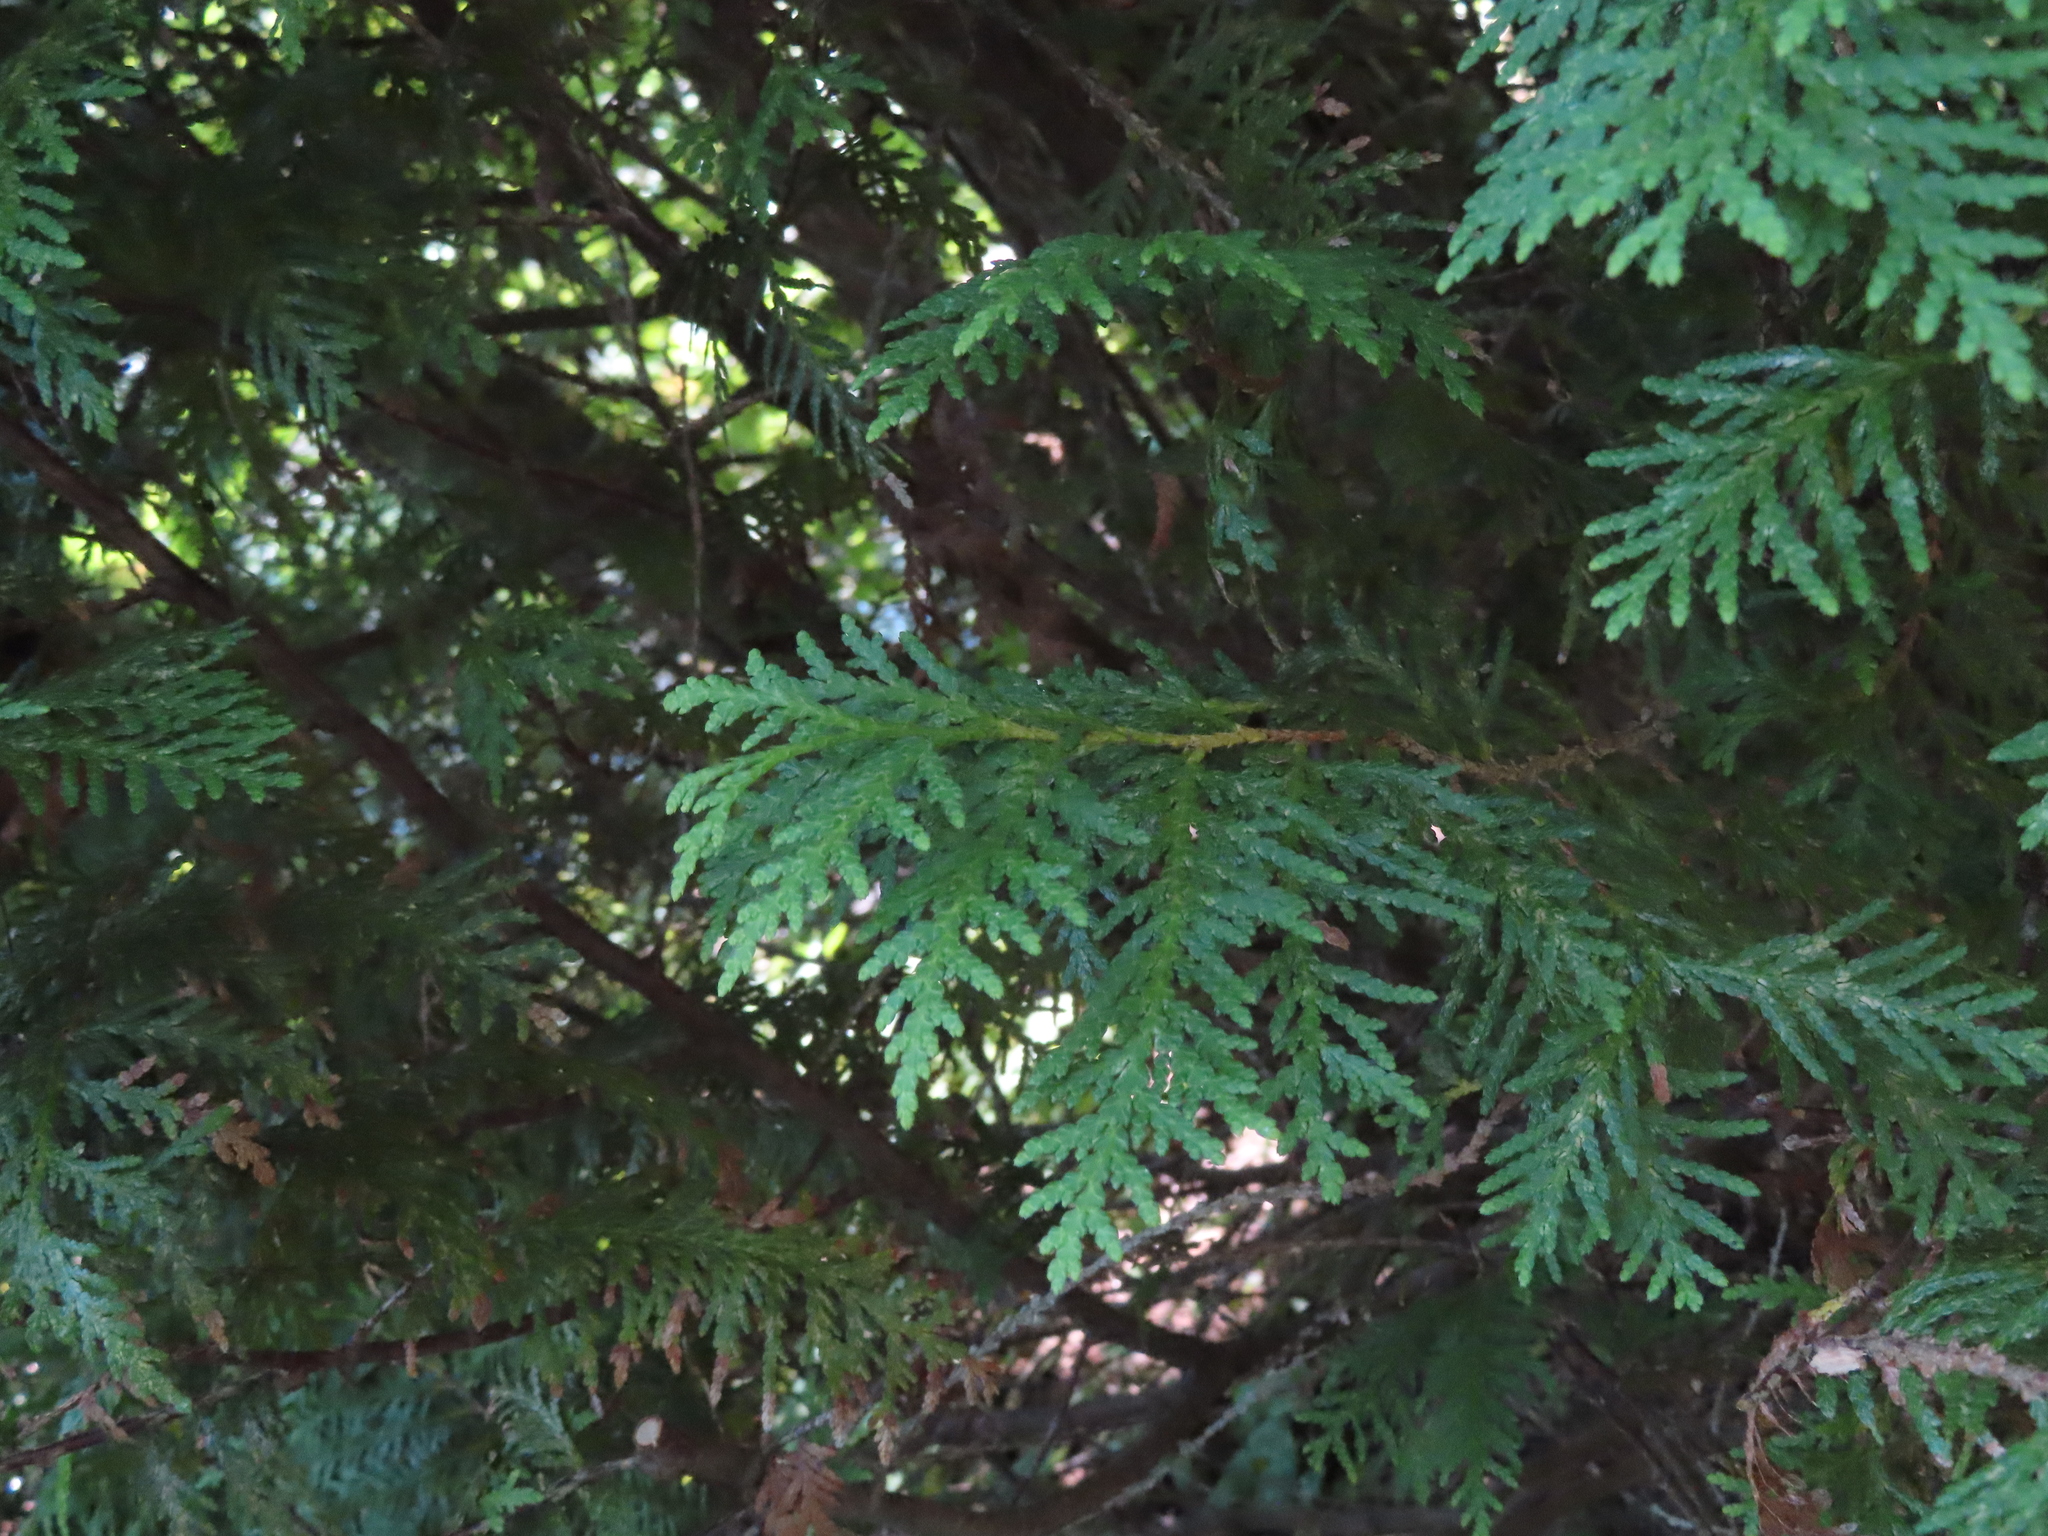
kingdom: Plantae
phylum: Tracheophyta
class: Pinopsida
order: Pinales
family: Cupressaceae
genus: Thuja
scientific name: Thuja occidentalis
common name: Northern white-cedar
